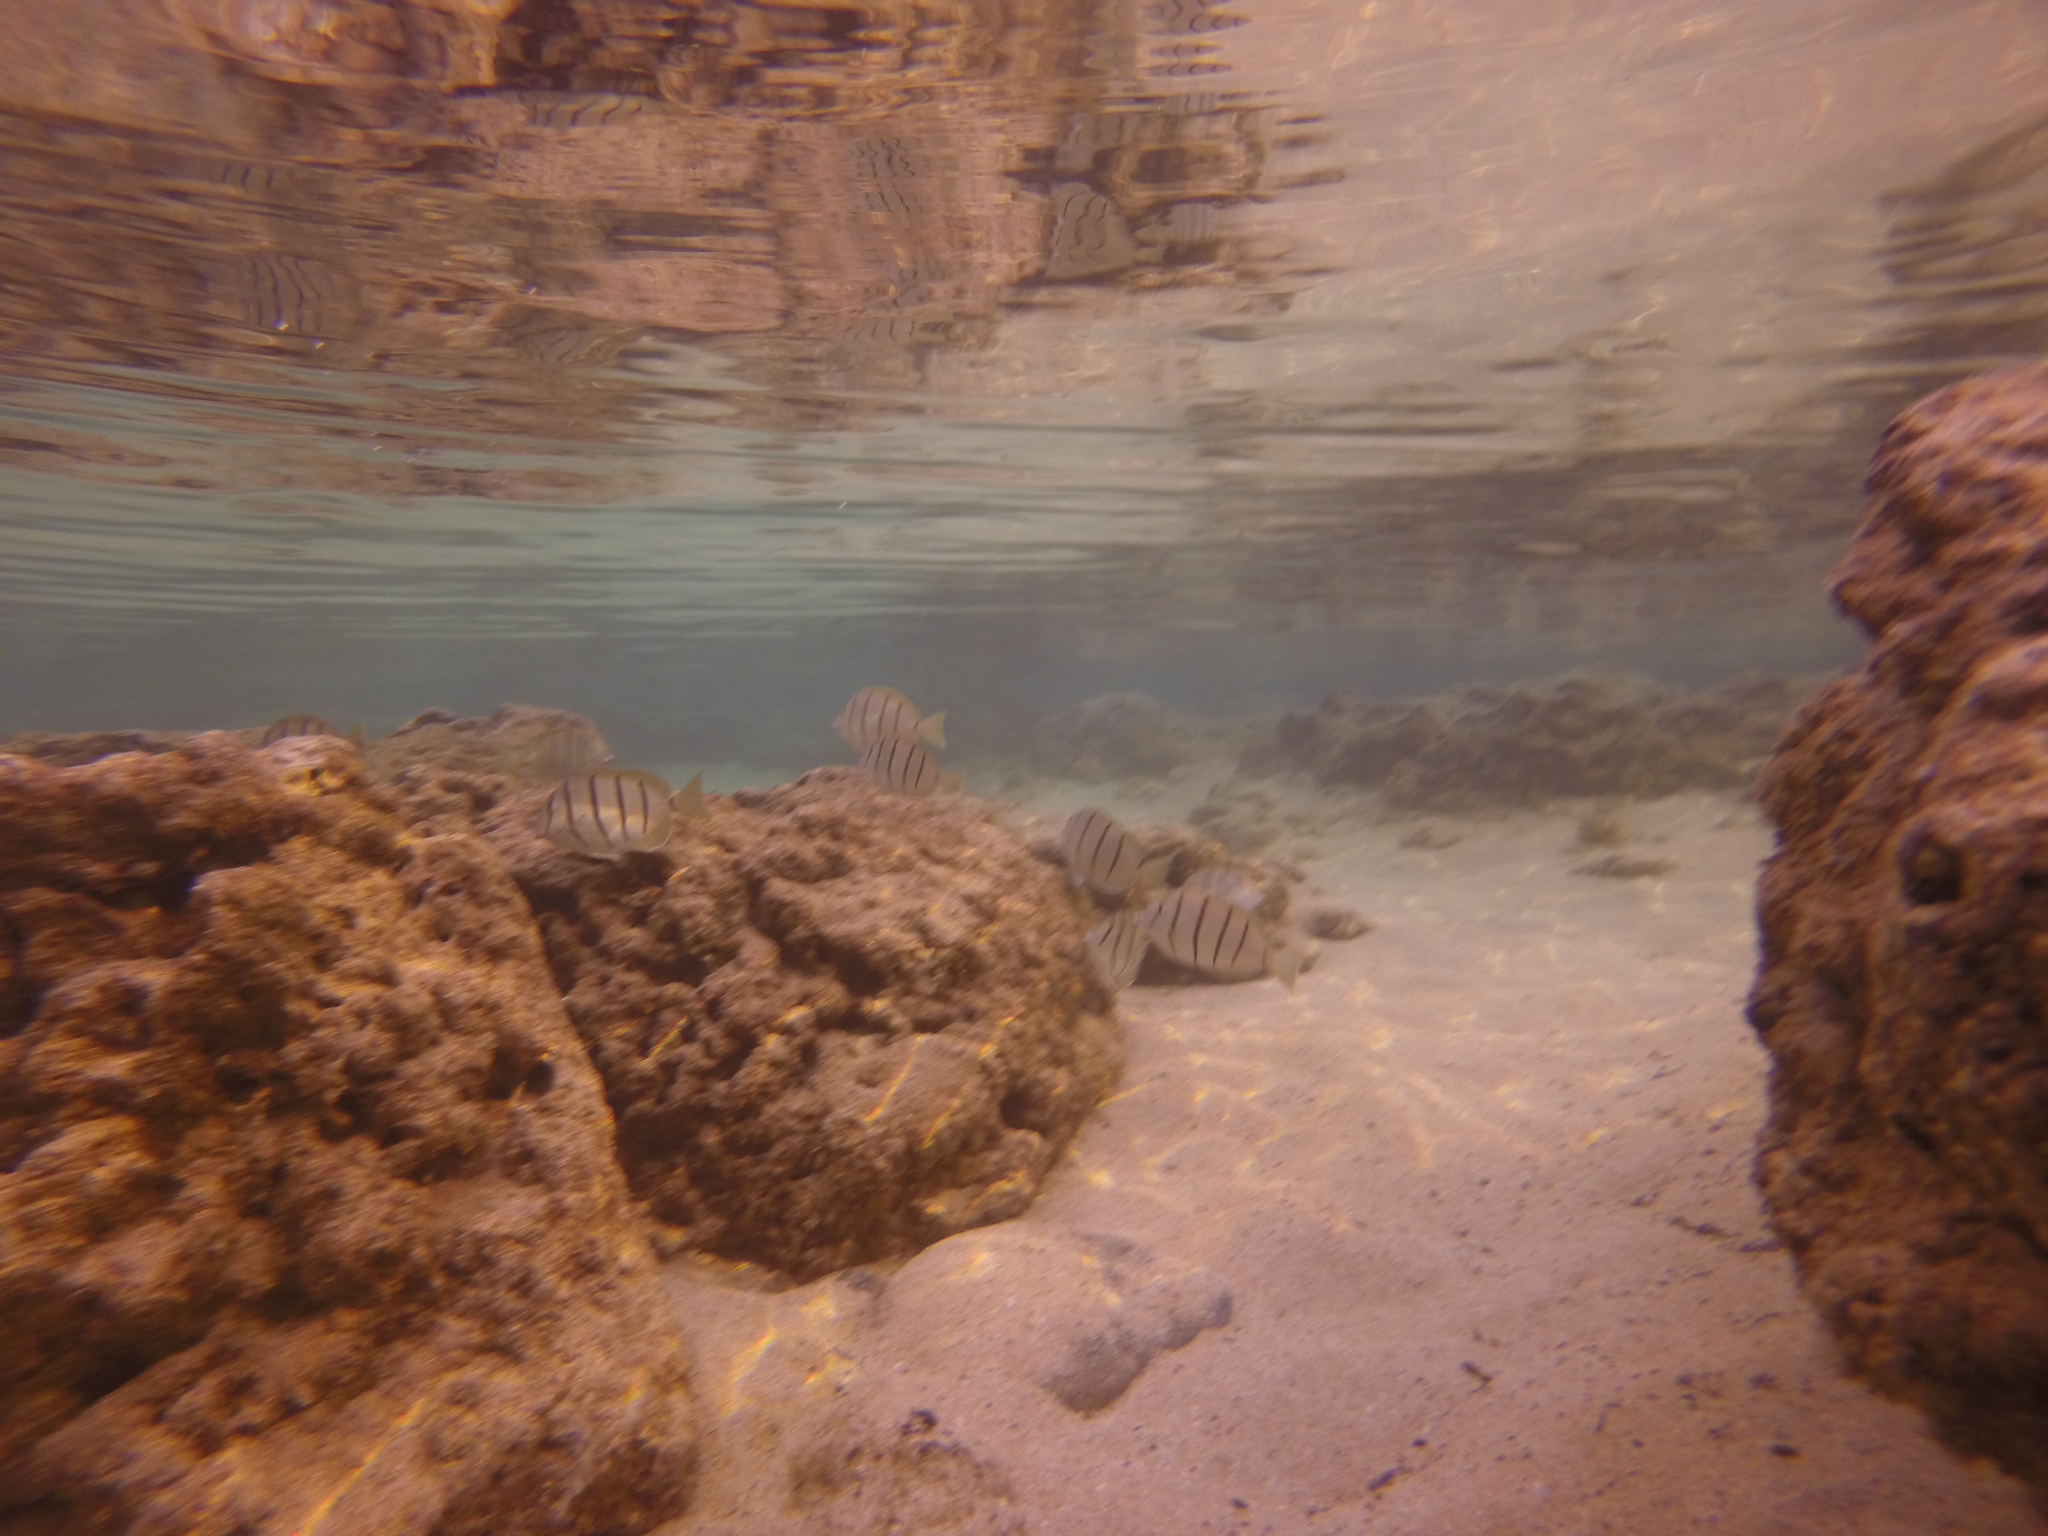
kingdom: Animalia
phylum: Chordata
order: Perciformes
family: Acanthuridae
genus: Acanthurus
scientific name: Acanthurus triostegus
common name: Convict surgeonfish
